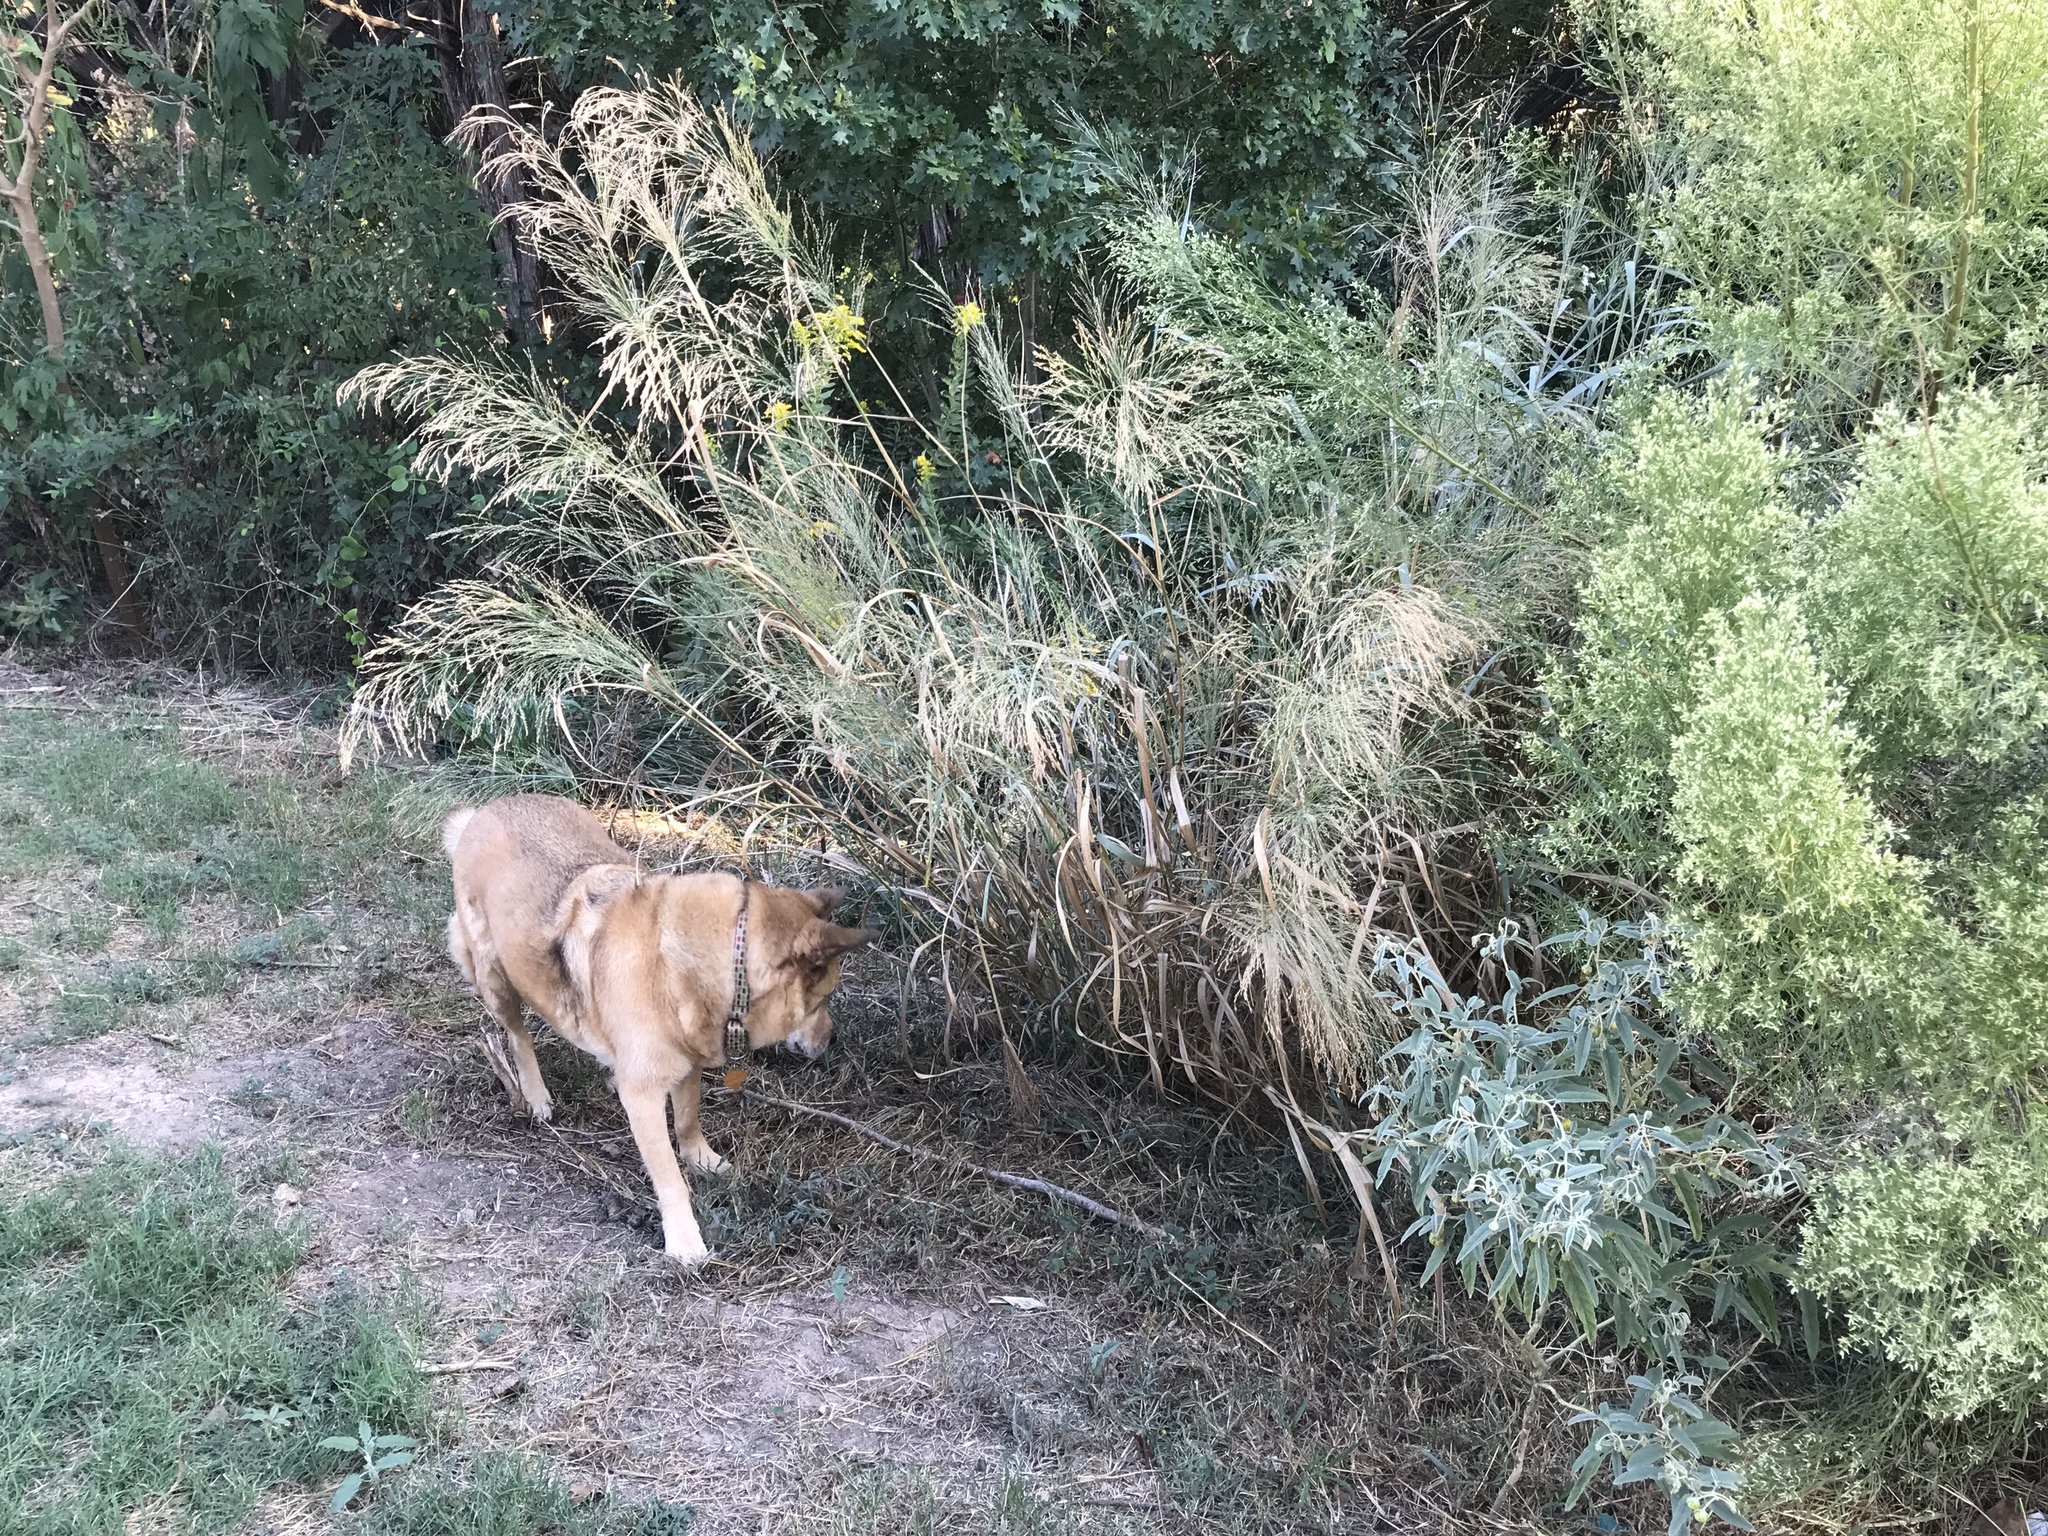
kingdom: Plantae
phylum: Tracheophyta
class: Liliopsida
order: Poales
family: Poaceae
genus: Panicum
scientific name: Panicum virgatum
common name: Switchgrass
